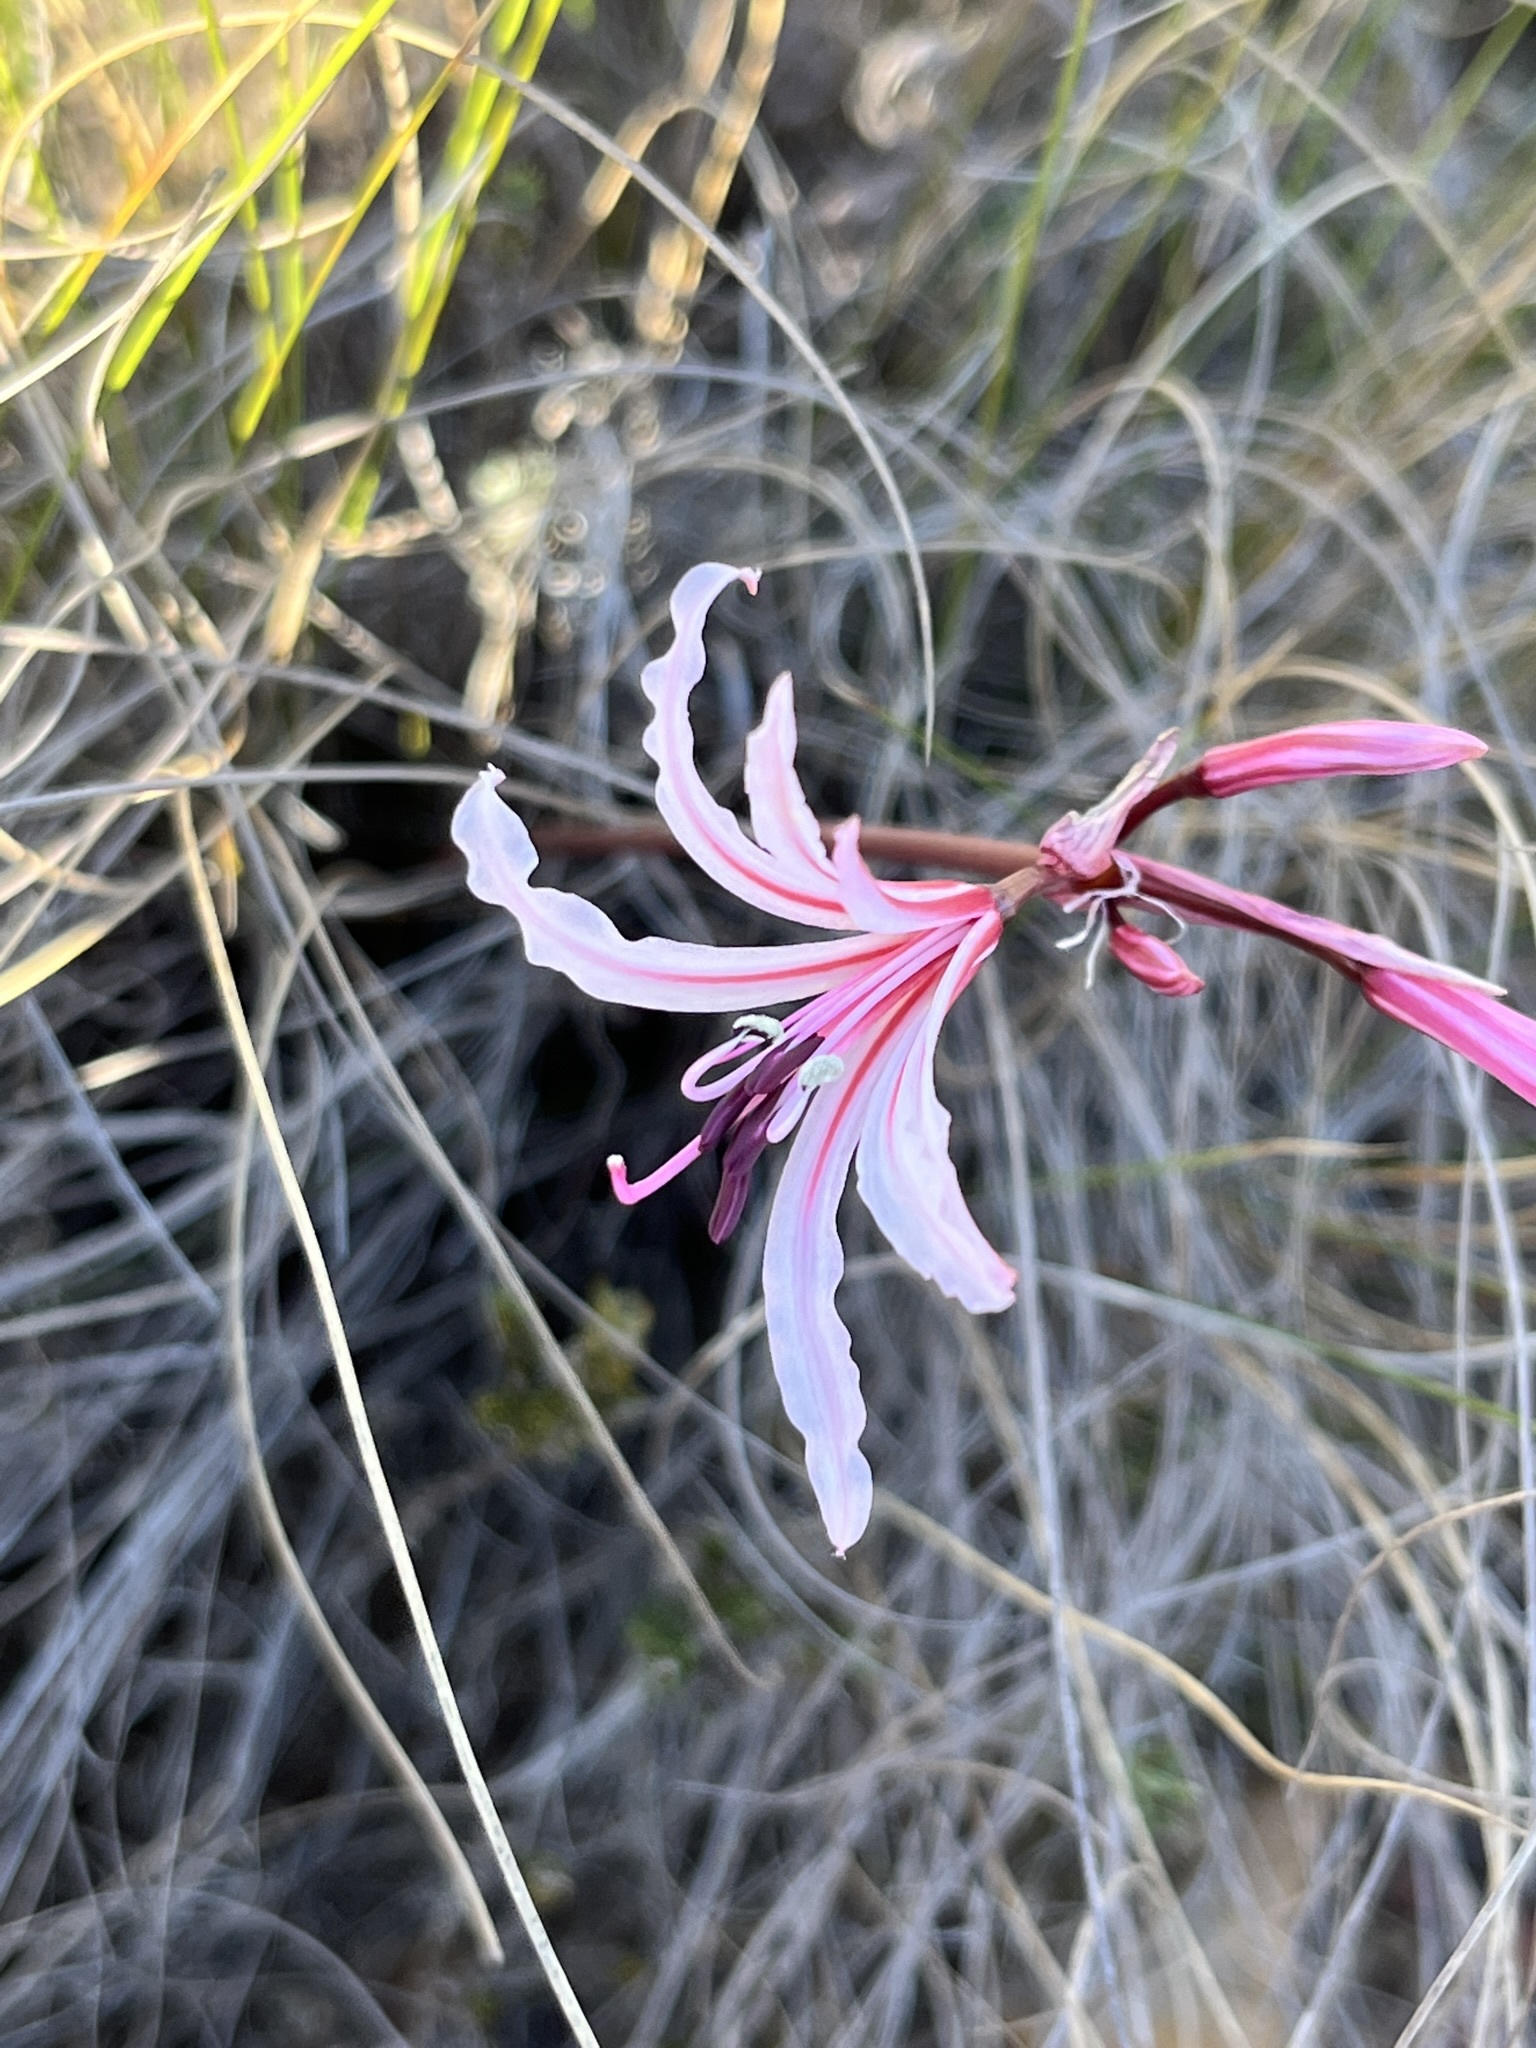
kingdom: Plantae
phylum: Tracheophyta
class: Liliopsida
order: Asparagales
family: Amaryllidaceae
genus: Nerine
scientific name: Nerine humilis
